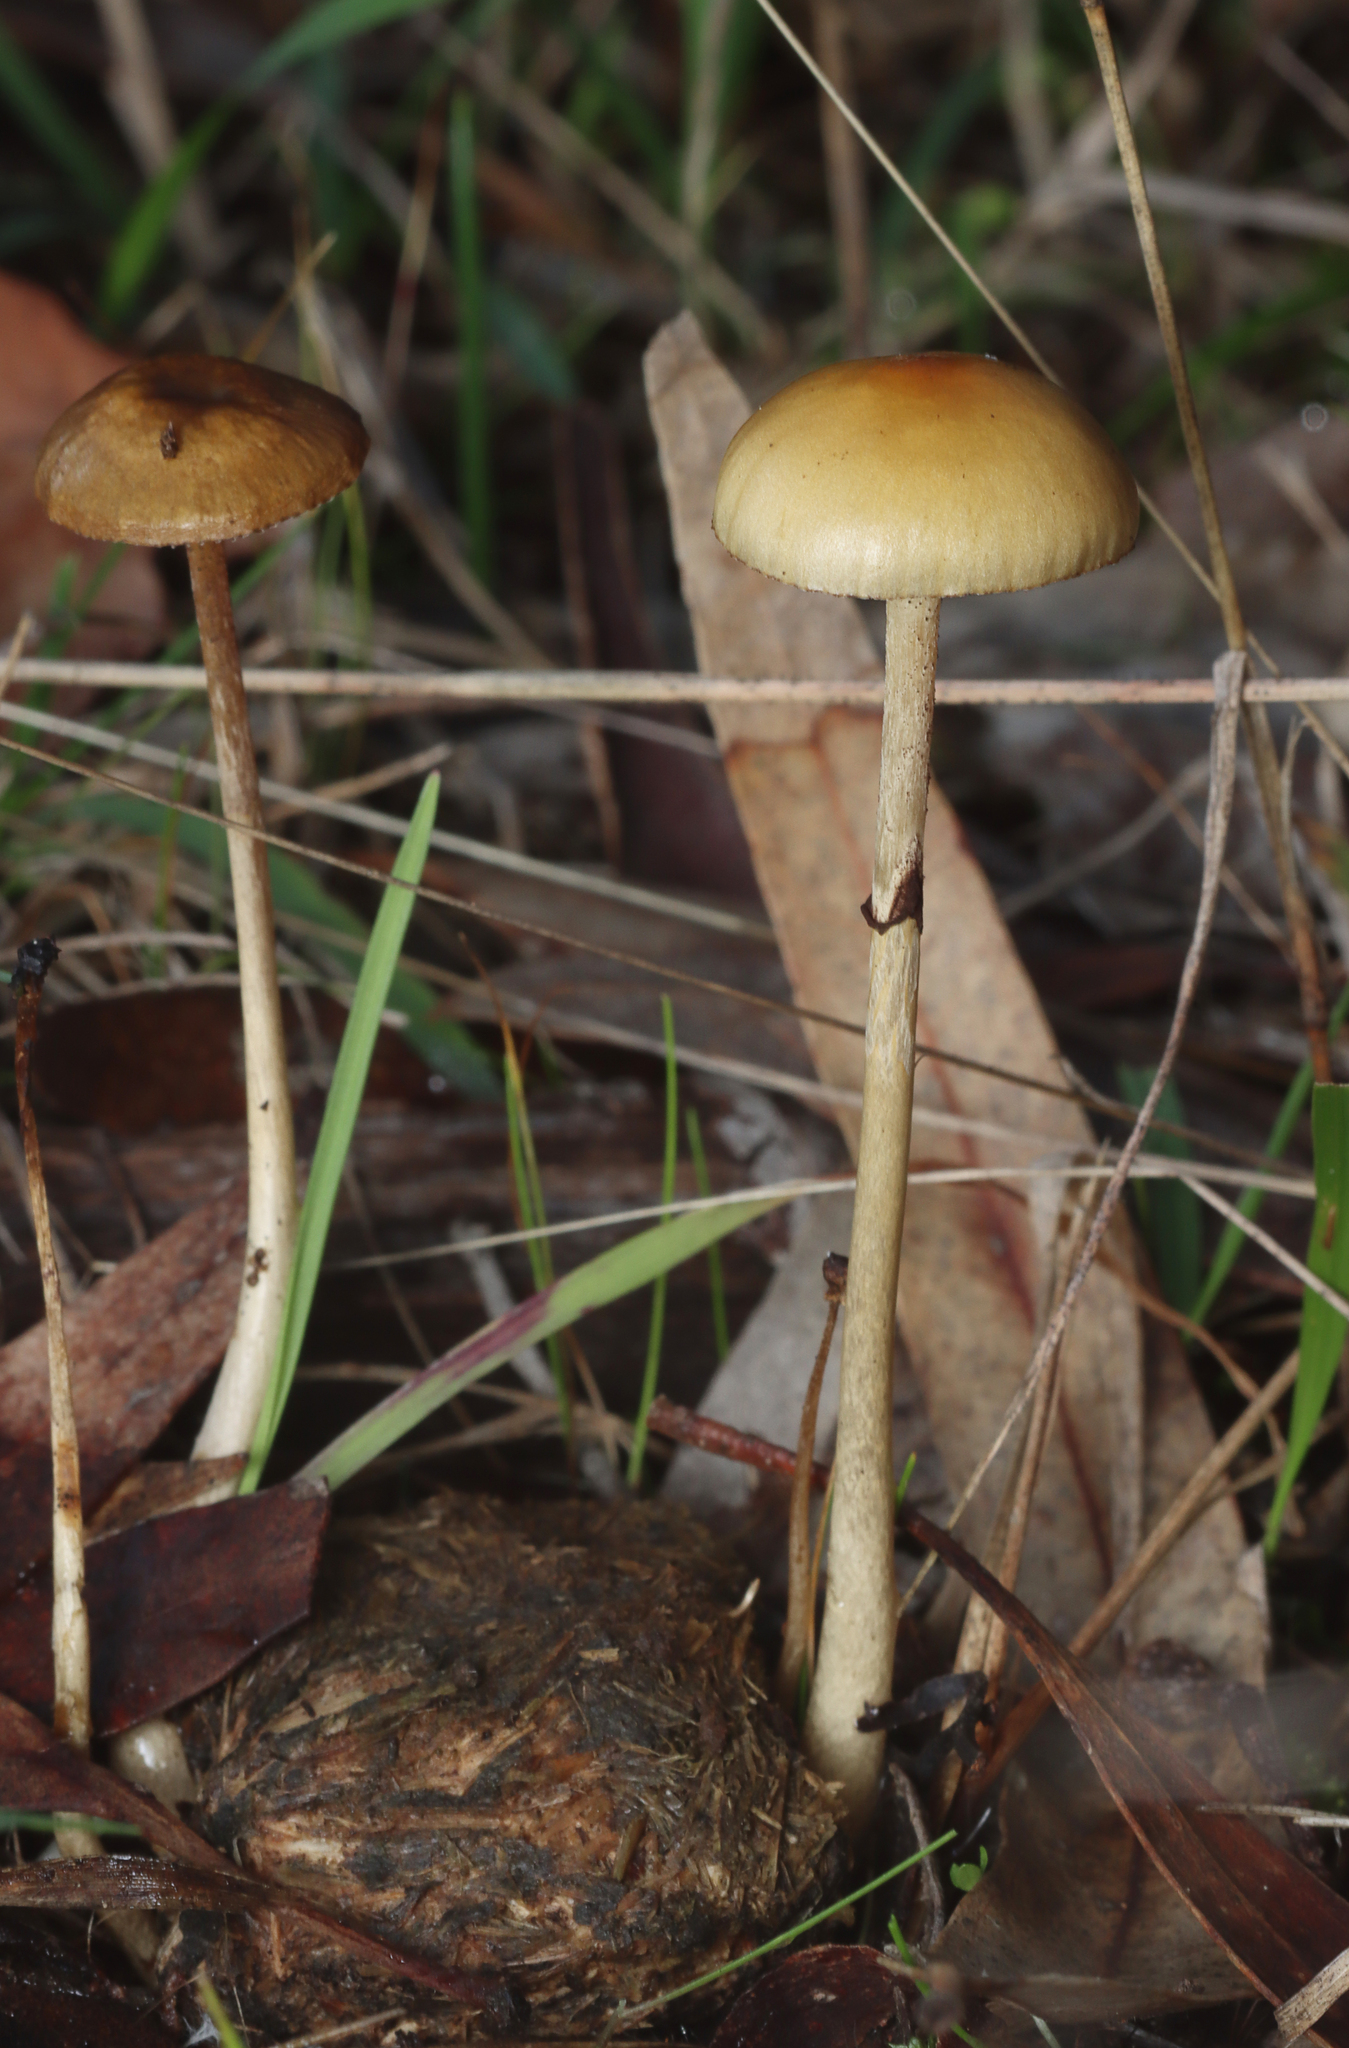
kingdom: Fungi
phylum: Basidiomycota
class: Agaricomycetes
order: Agaricales
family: Strophariaceae
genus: Protostropharia
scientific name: Protostropharia semiglobata
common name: Dung roundhead
